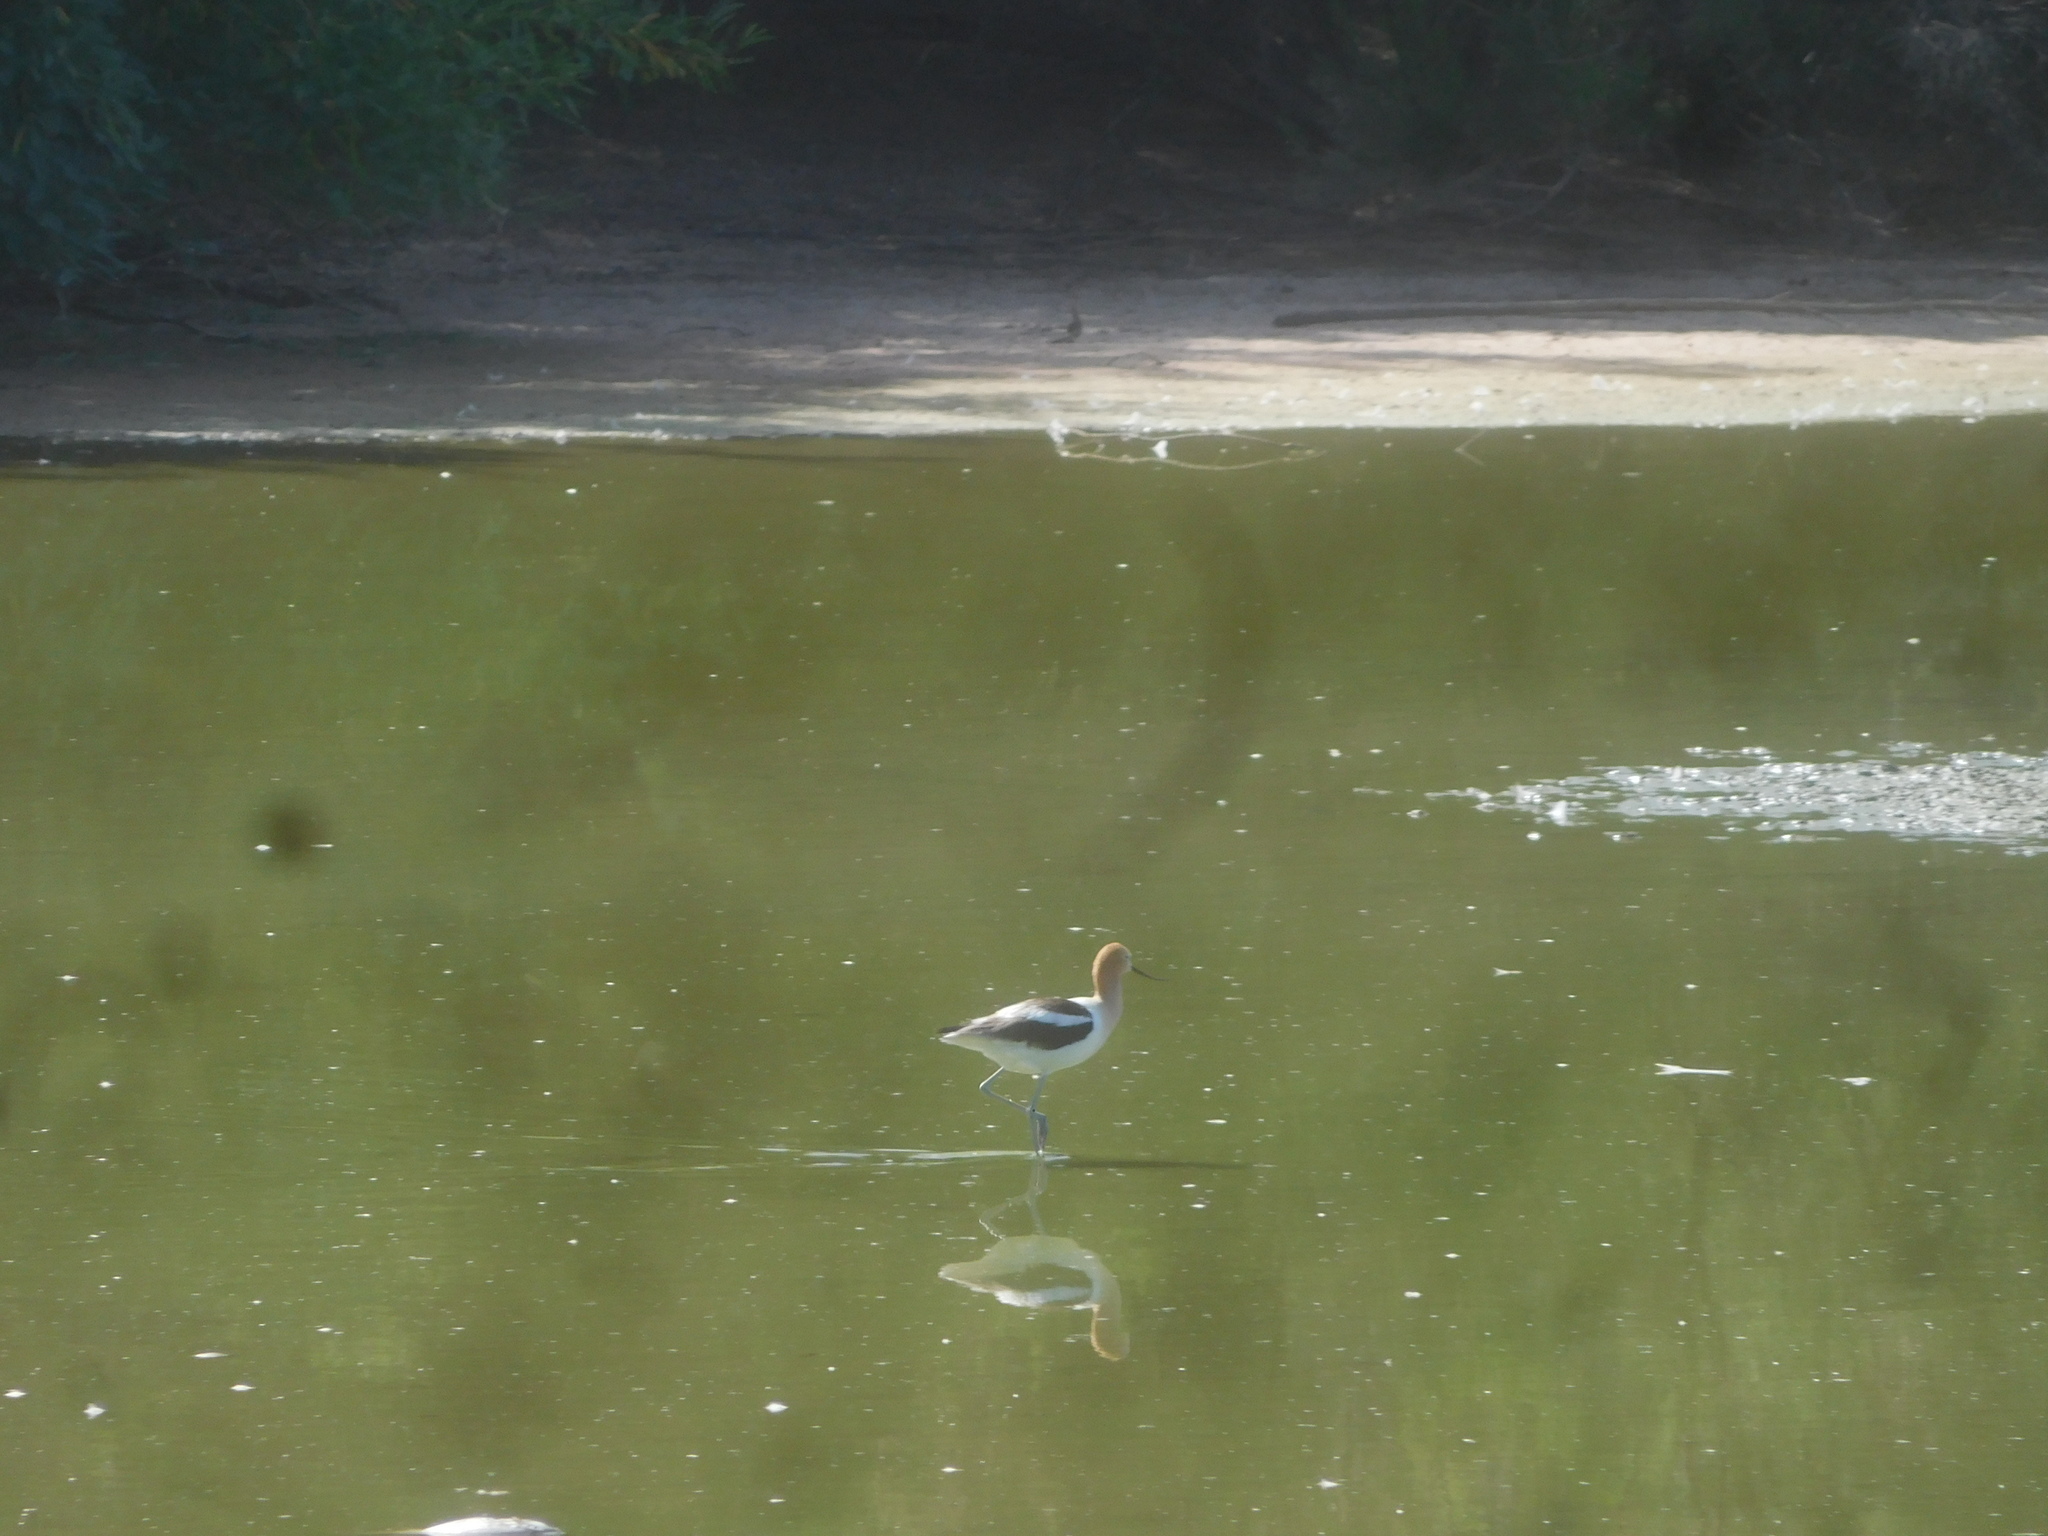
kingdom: Animalia
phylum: Chordata
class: Aves
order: Charadriiformes
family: Recurvirostridae
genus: Recurvirostra
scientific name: Recurvirostra americana
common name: American avocet
